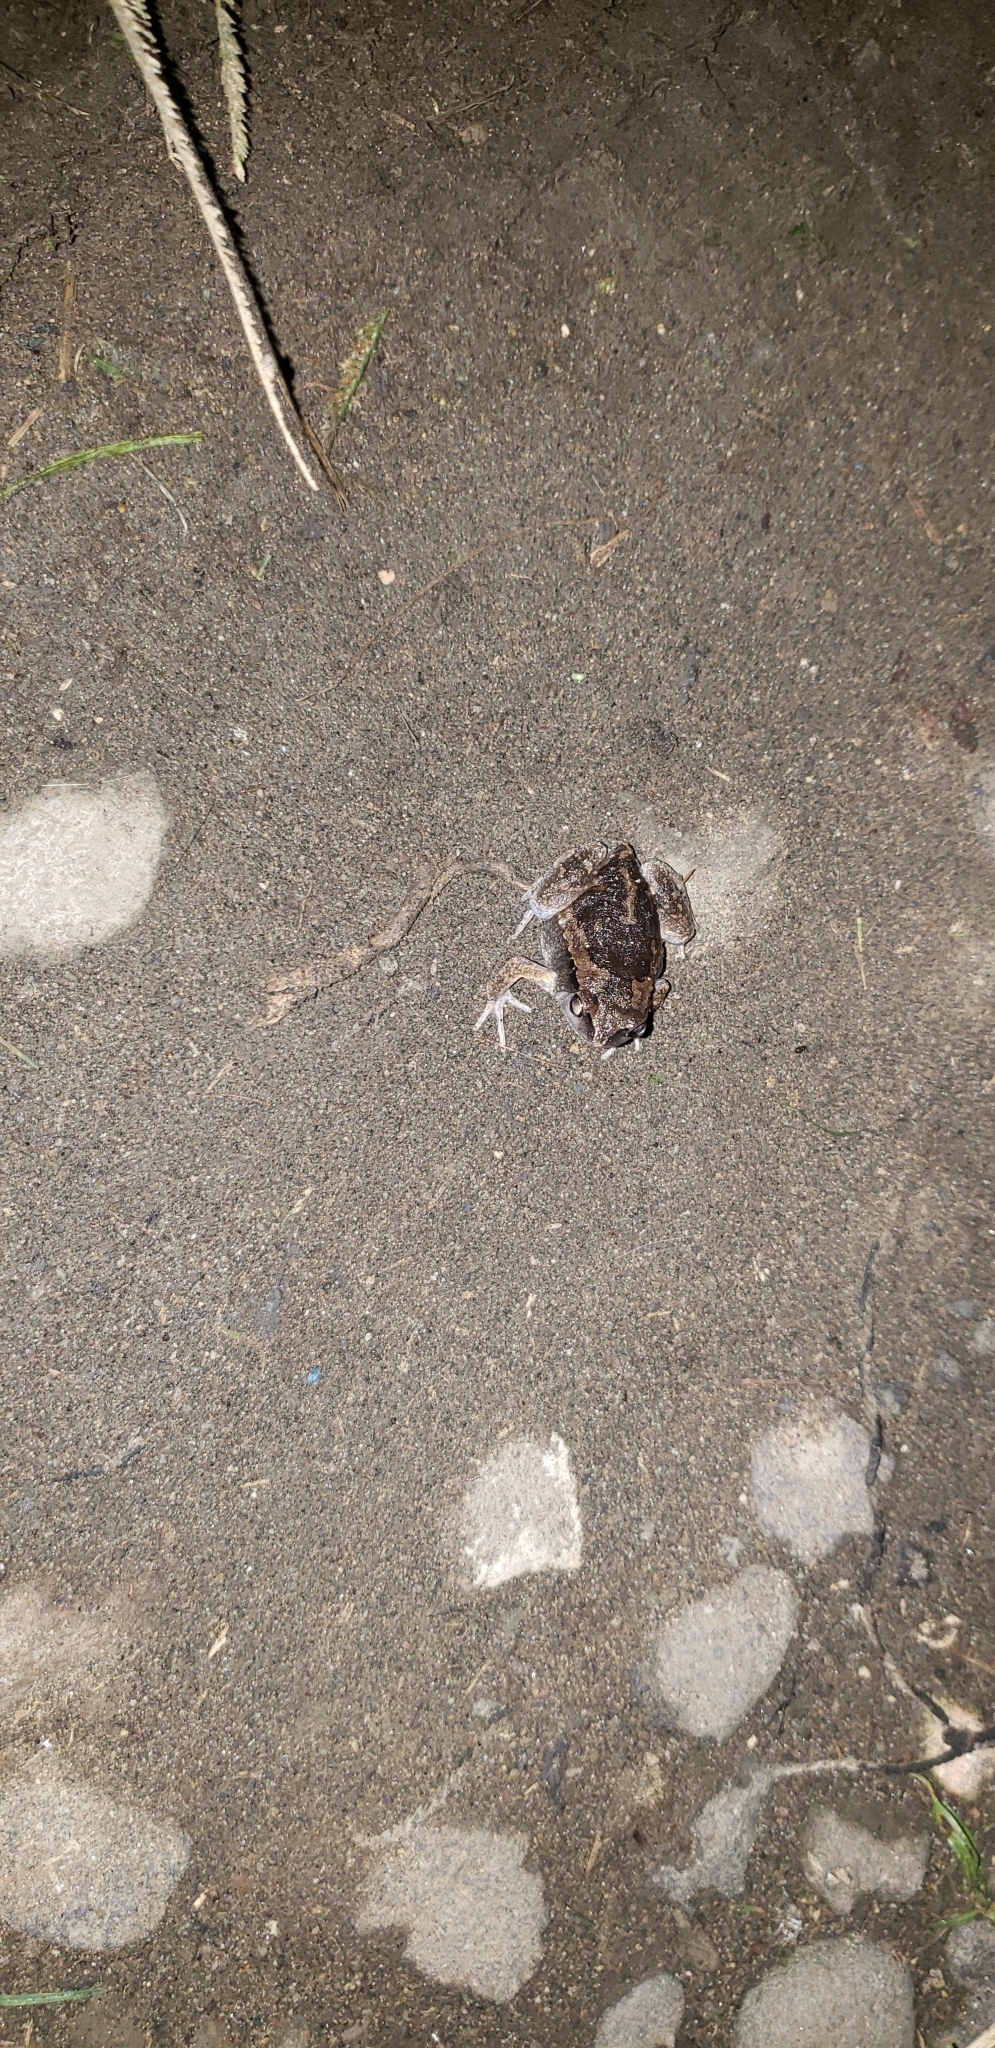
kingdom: Animalia
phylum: Chordata
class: Amphibia
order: Anura
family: Microhylidae
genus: Kaloula
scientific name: Kaloula picta
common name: Painted narrowmouth toad
